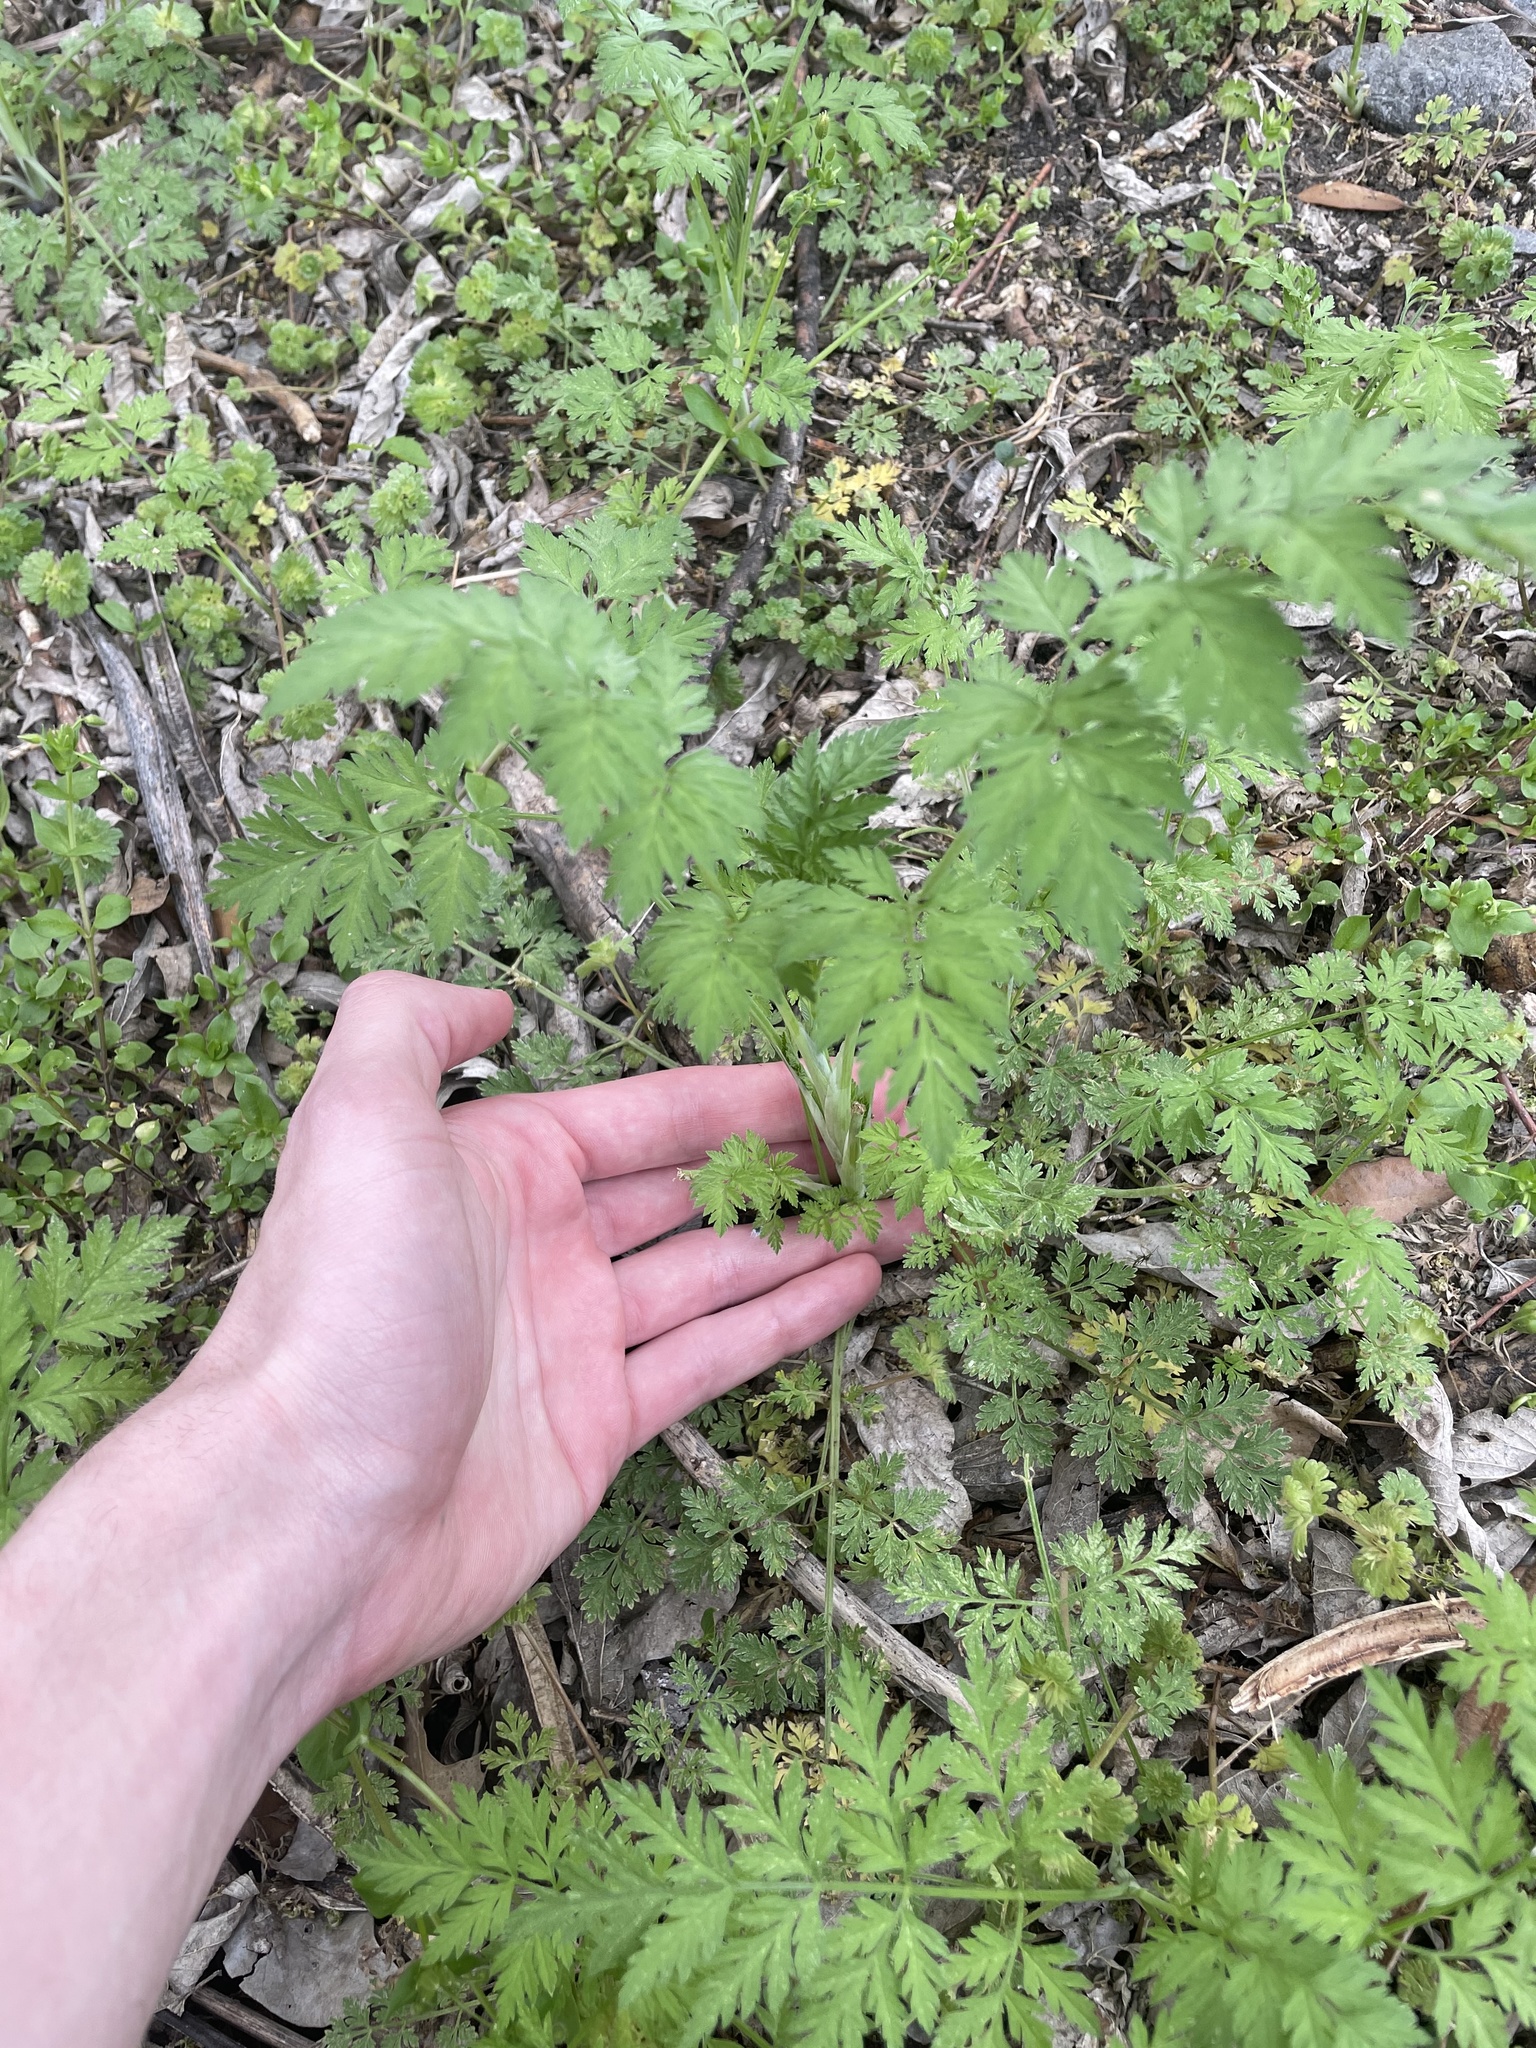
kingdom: Plantae
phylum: Tracheophyta
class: Magnoliopsida
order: Apiales
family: Apiaceae
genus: Chaerophyllum
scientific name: Chaerophyllum tainturieri
